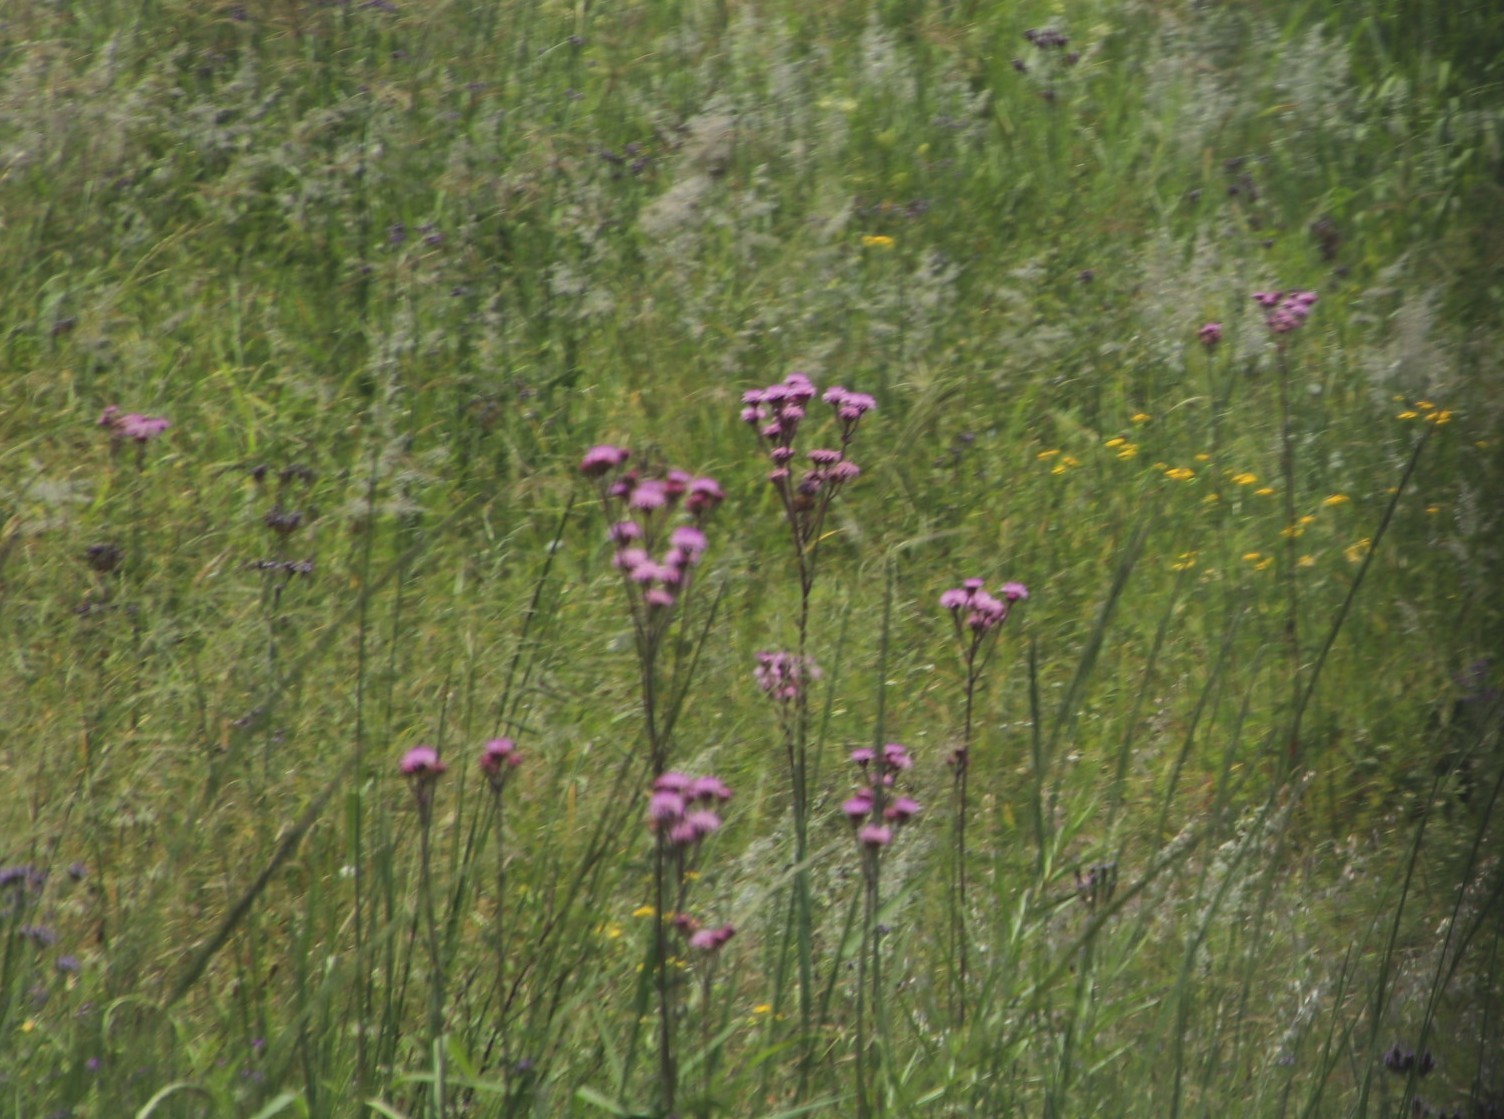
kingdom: Plantae
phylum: Tracheophyta
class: Magnoliopsida
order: Asterales
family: Asteraceae
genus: Campuloclinium
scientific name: Campuloclinium macrocephalum
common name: Pompomweed
